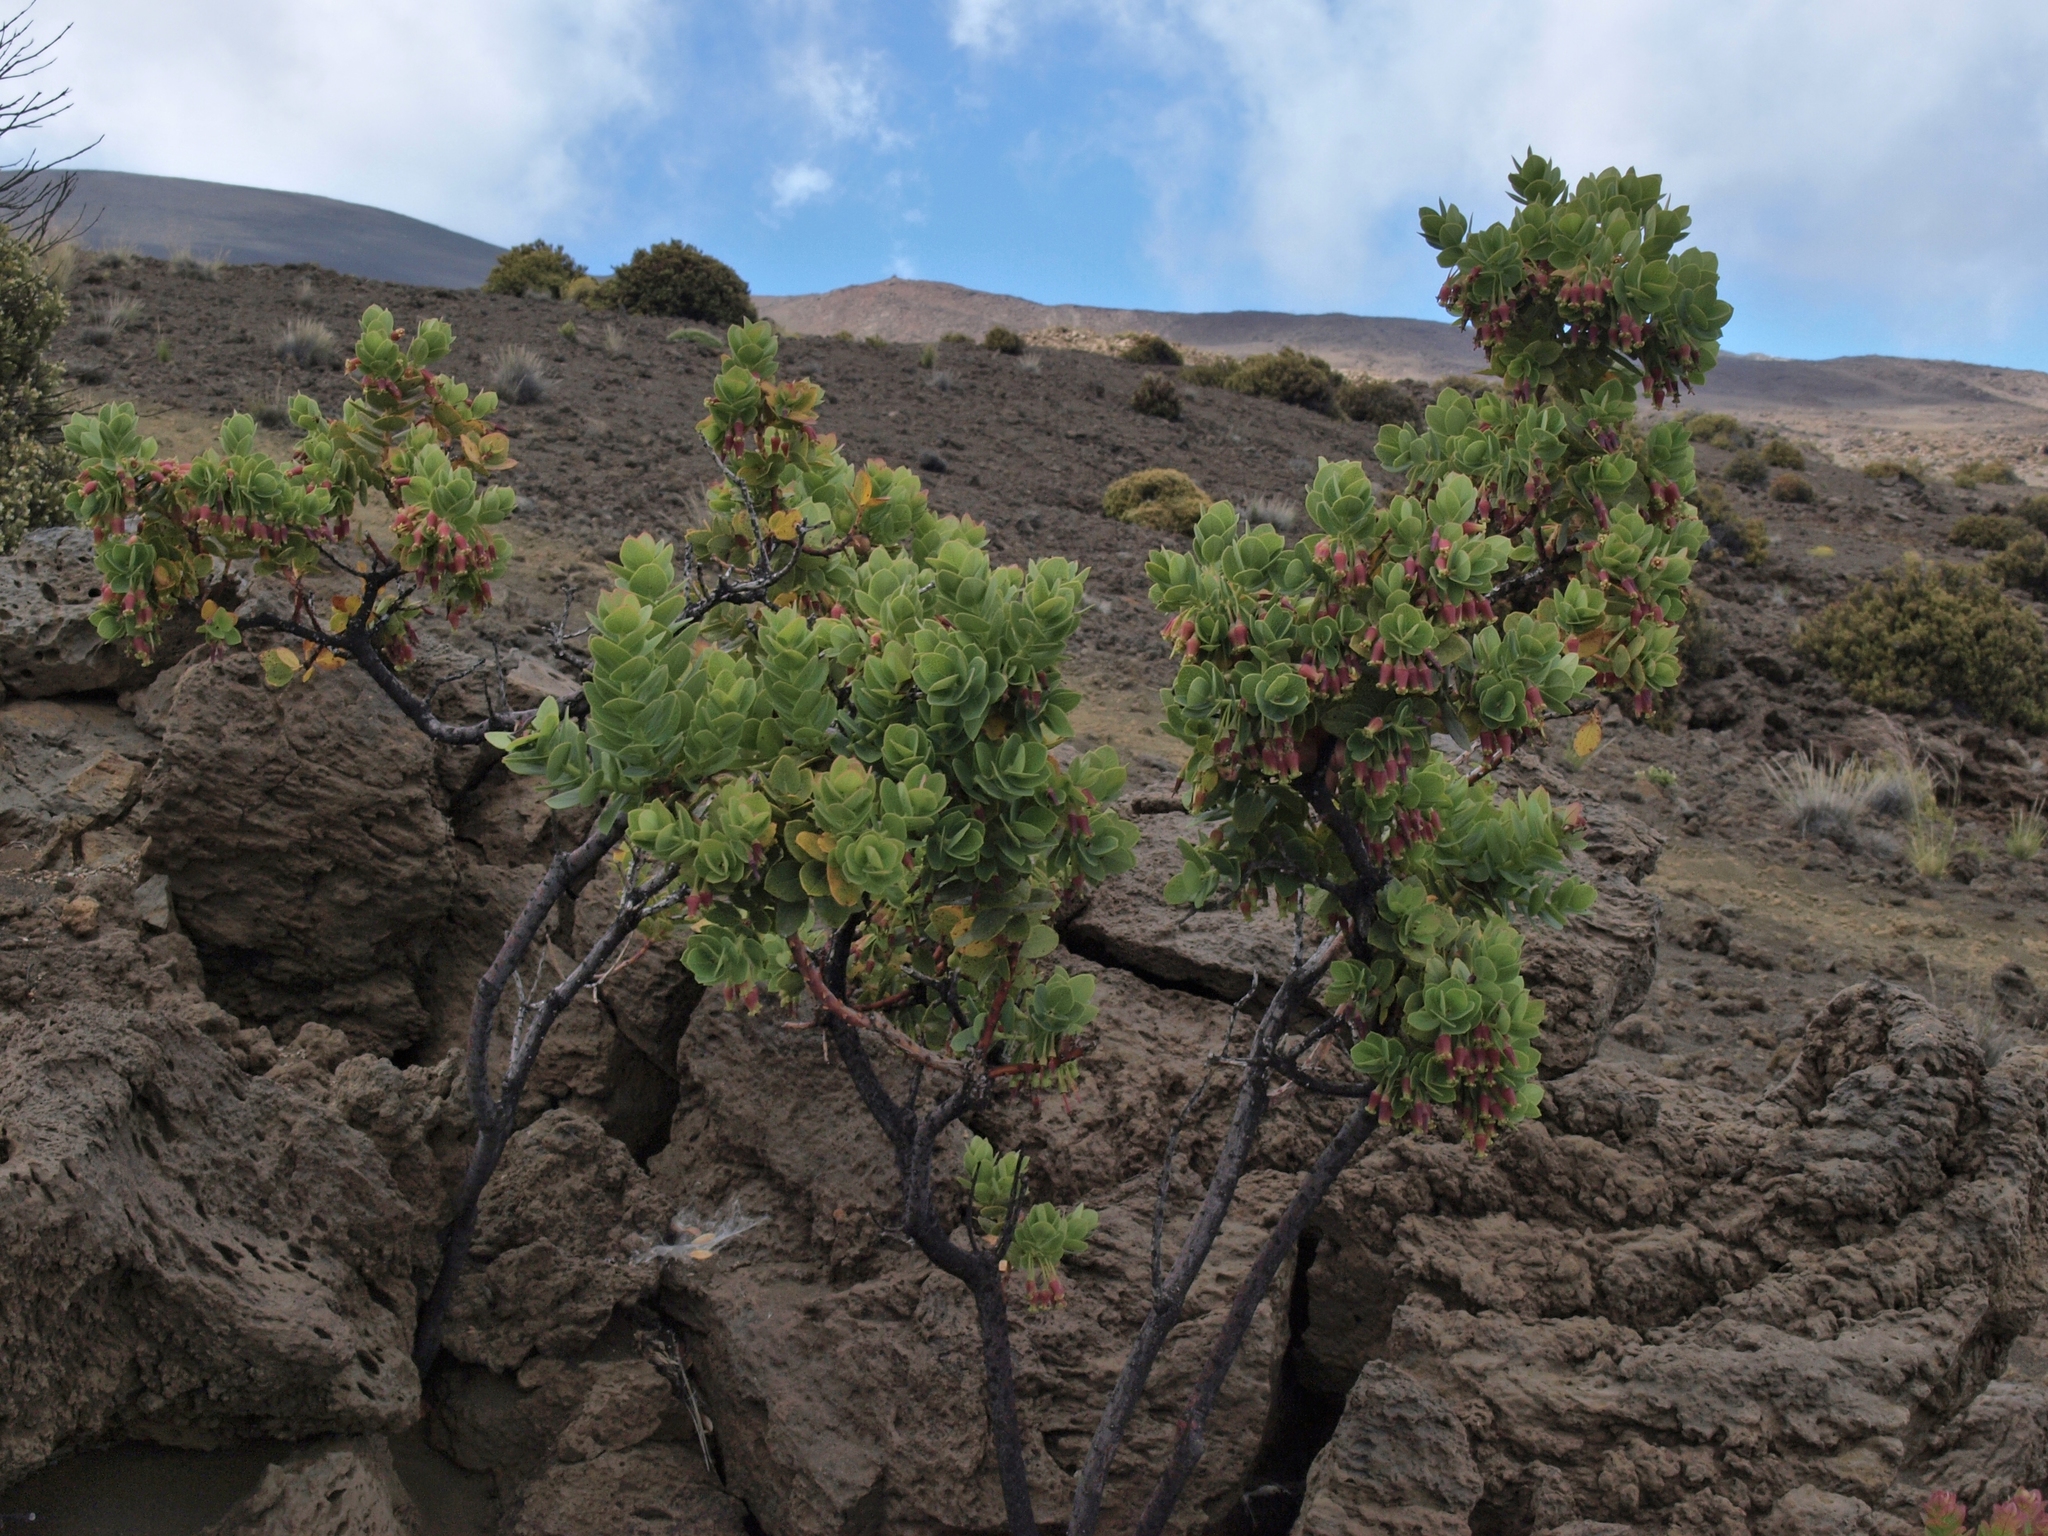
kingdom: Plantae
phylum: Tracheophyta
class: Magnoliopsida
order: Ericales
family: Ericaceae
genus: Vaccinium
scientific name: Vaccinium reticulatum
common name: Ohelo
